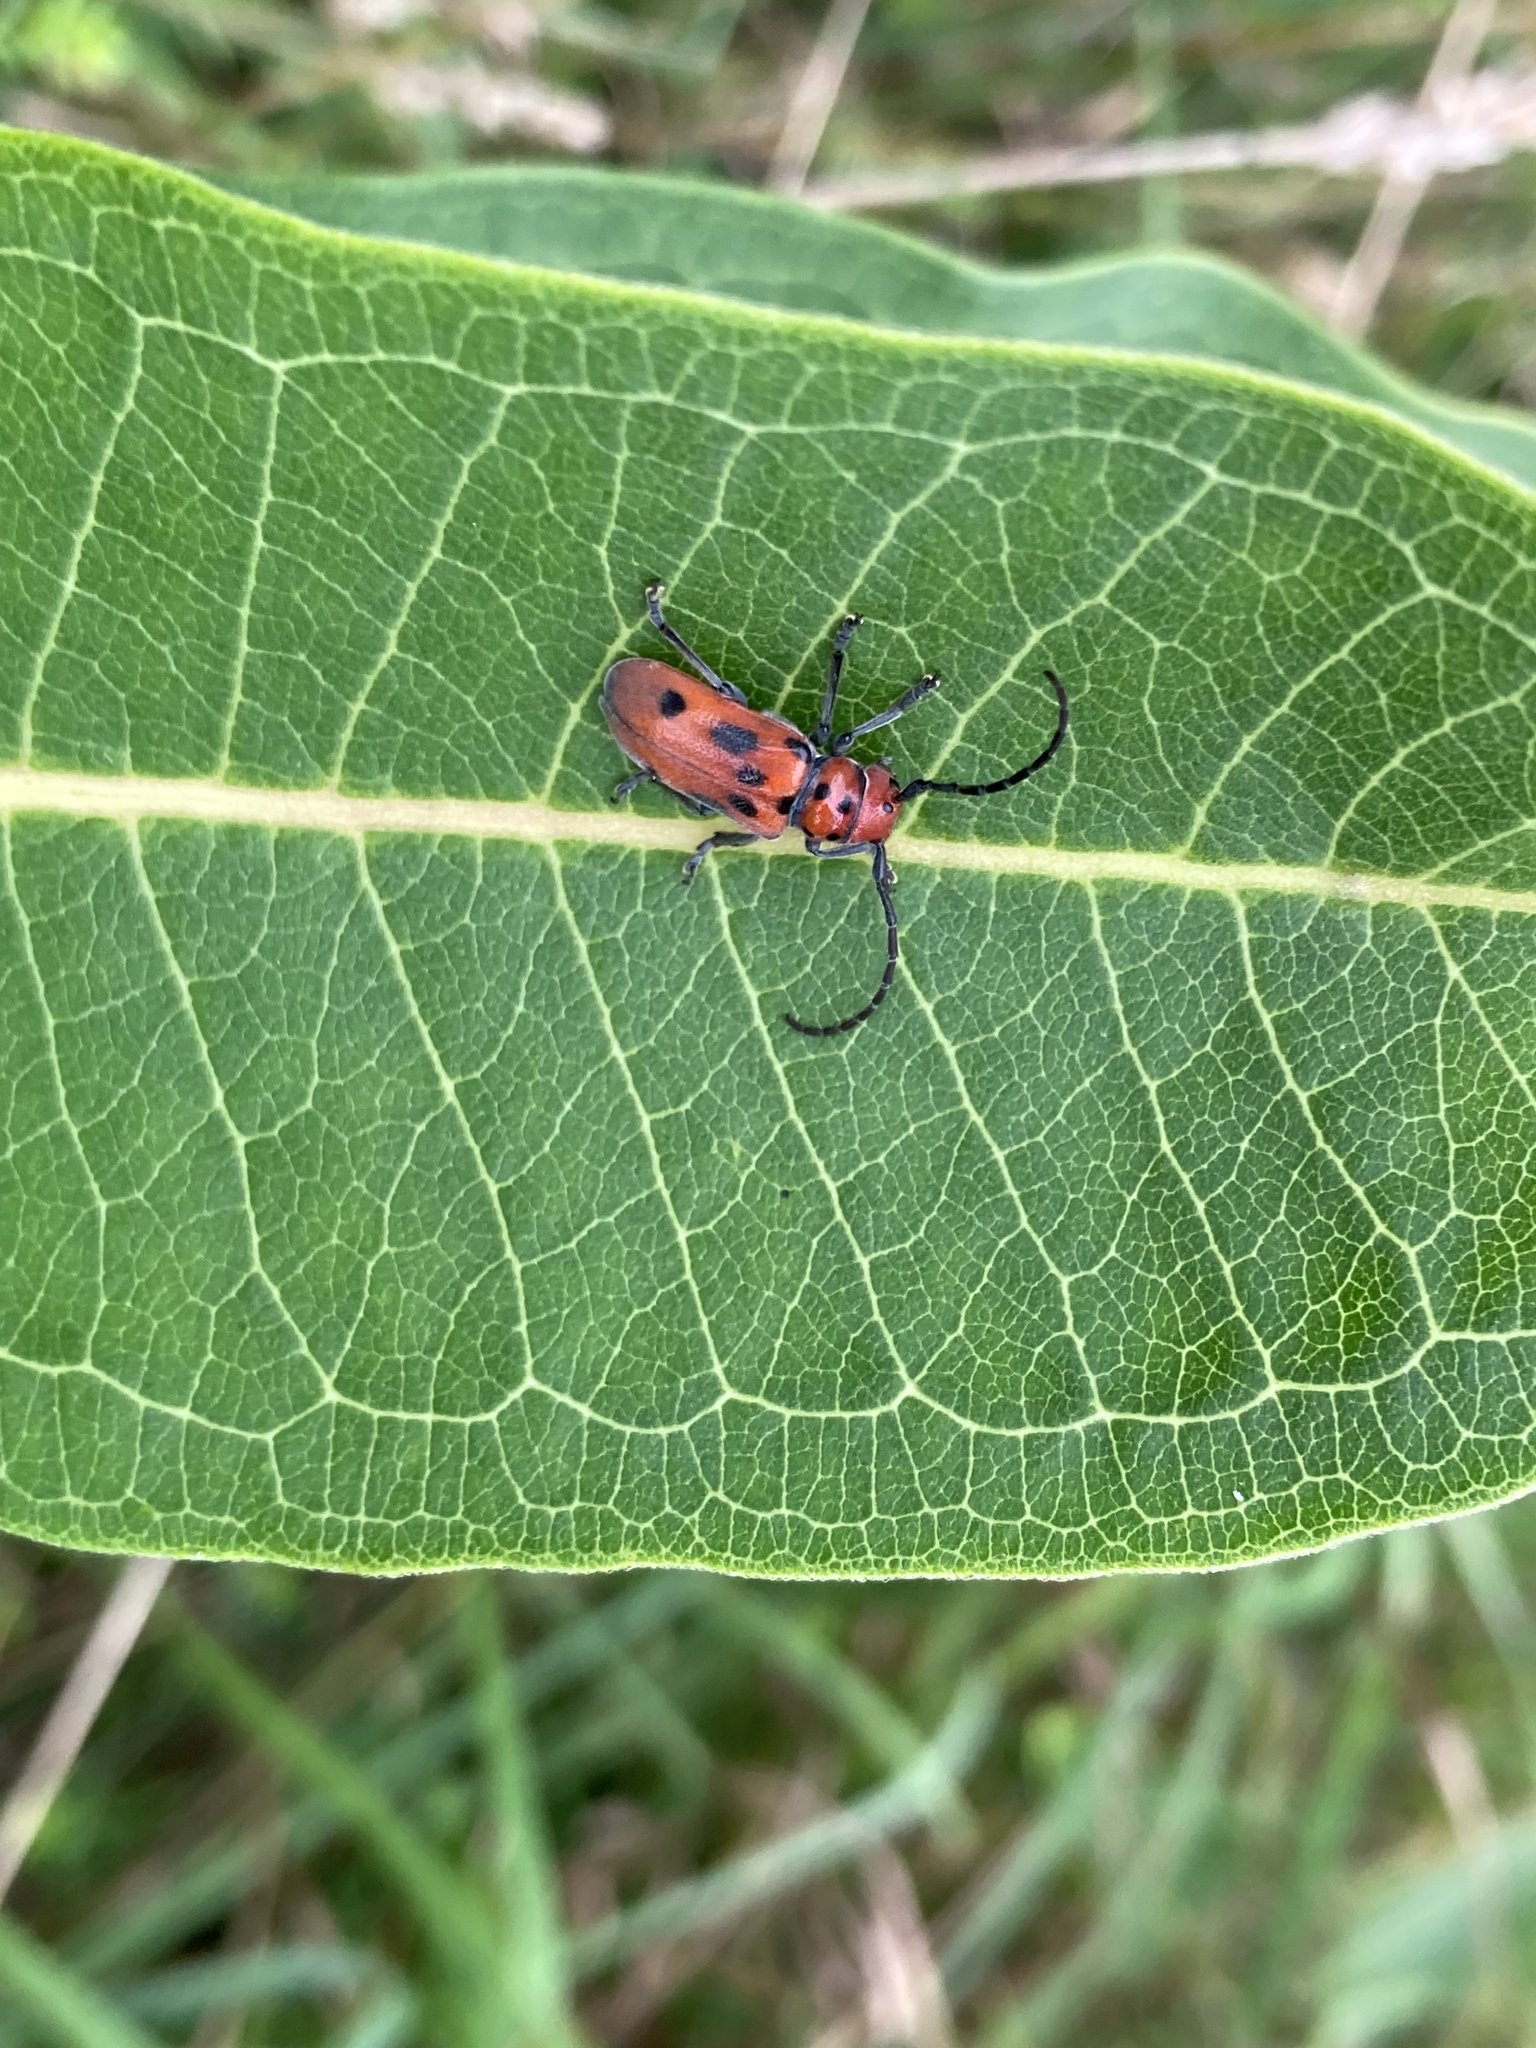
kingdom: Animalia
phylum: Arthropoda
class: Insecta
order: Coleoptera
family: Cerambycidae
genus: Tetraopes
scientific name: Tetraopes tetrophthalmus
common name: Red milkweed beetle
